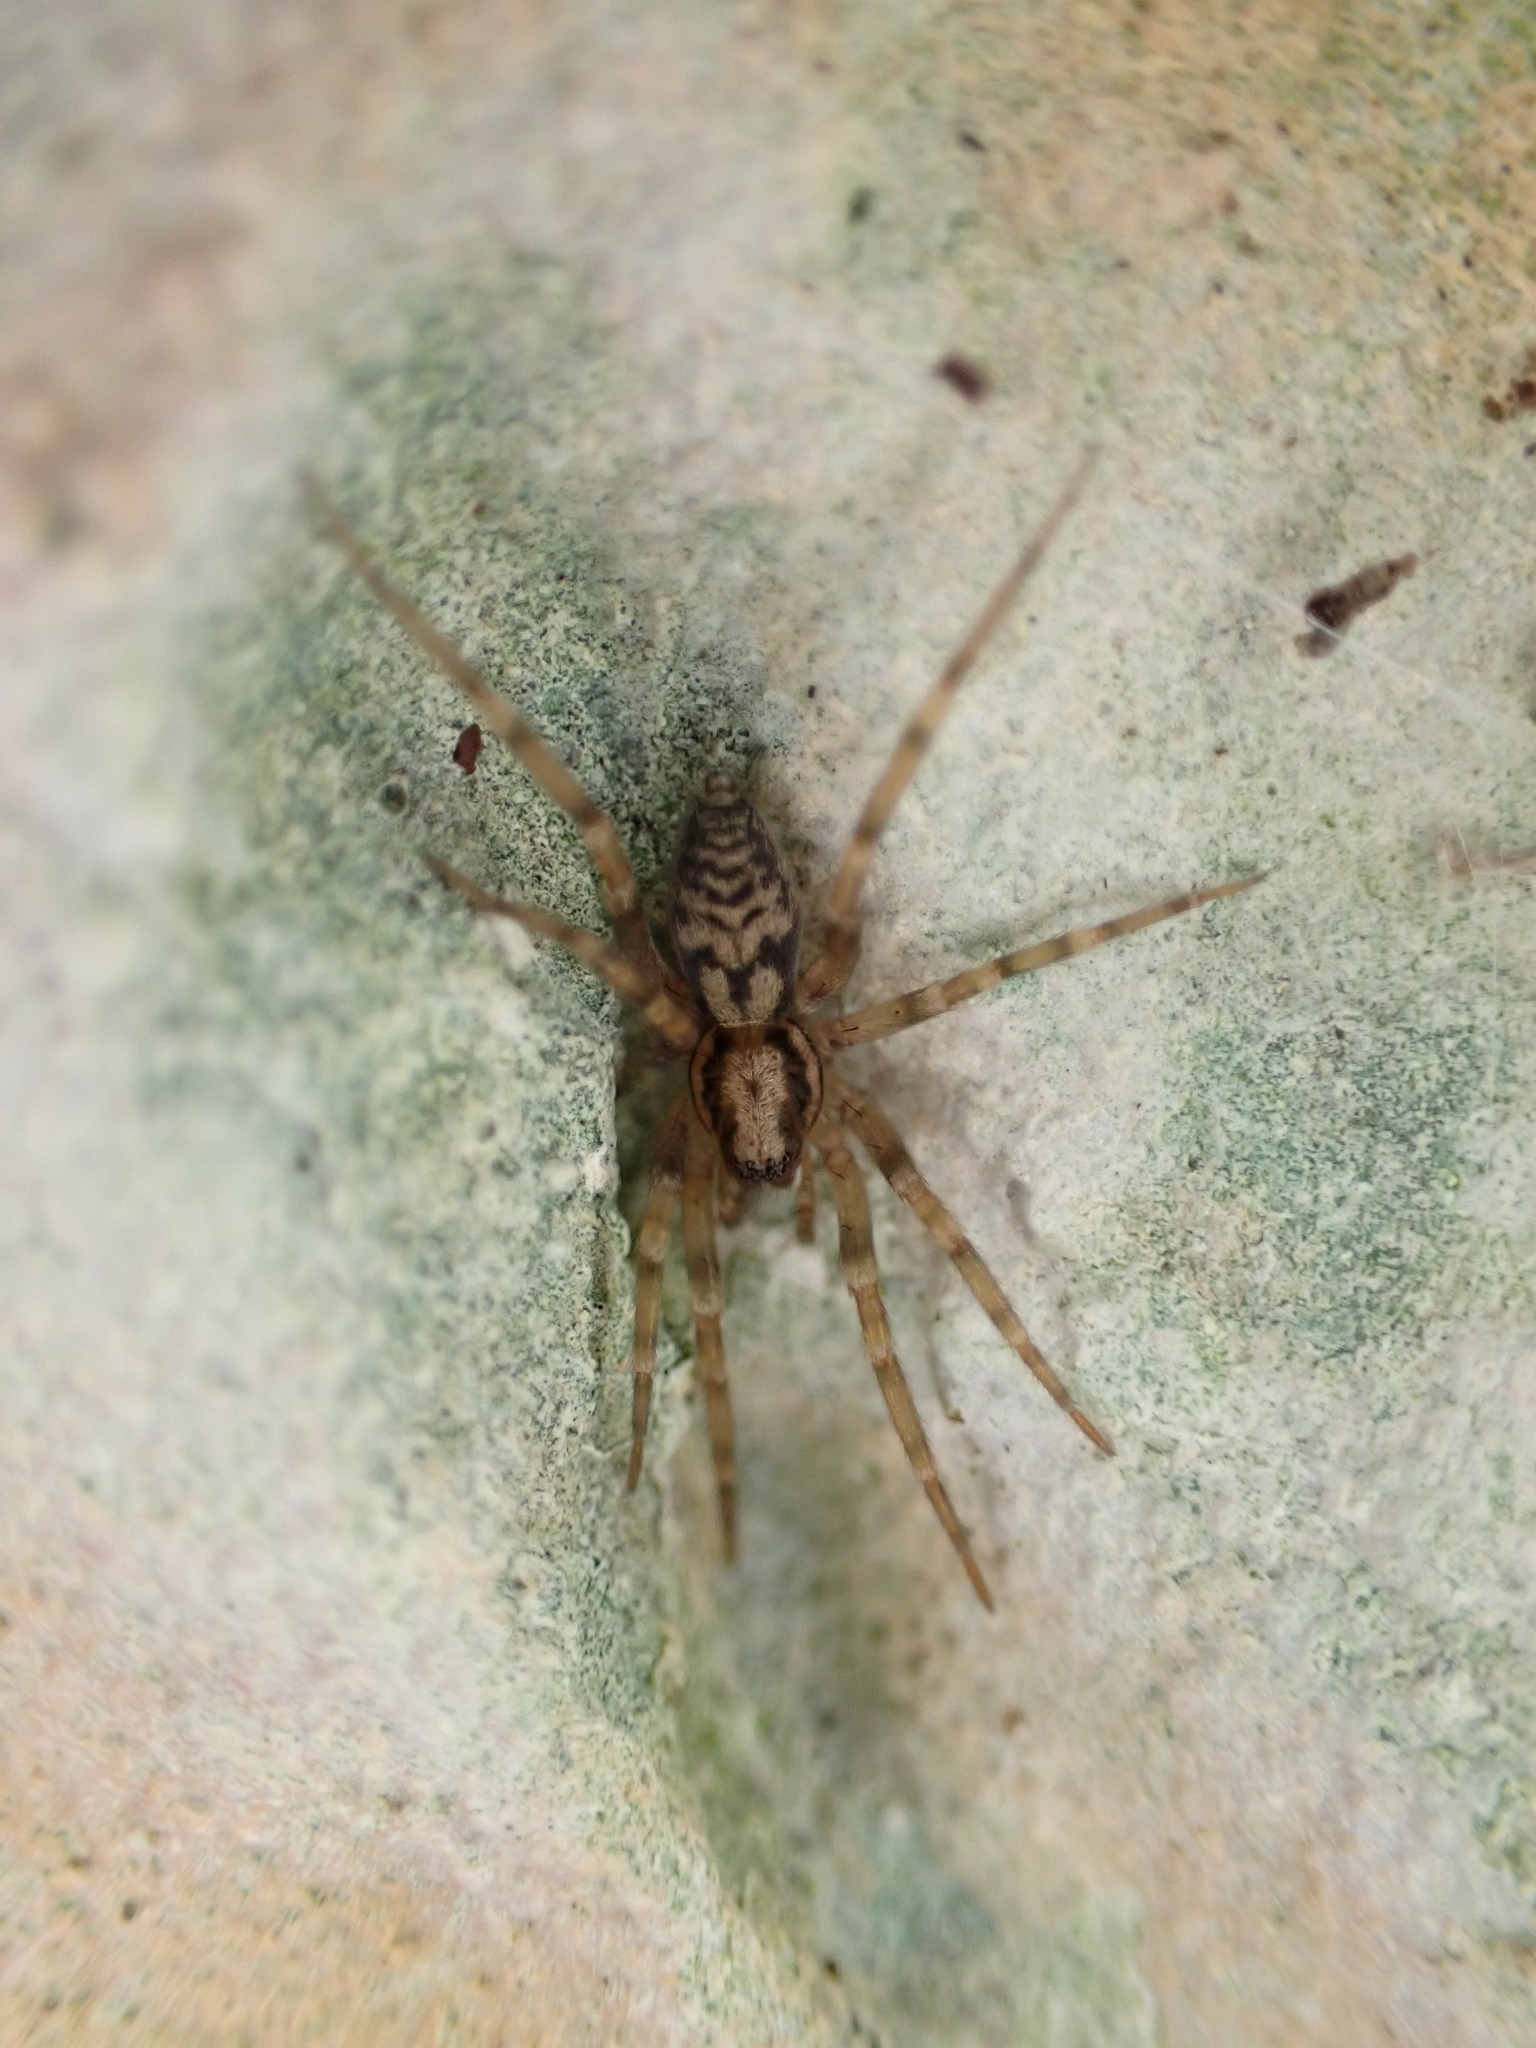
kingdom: Animalia
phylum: Arthropoda
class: Arachnida
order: Araneae
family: Liocranidae
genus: Liocranum
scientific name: Liocranum rupicola
